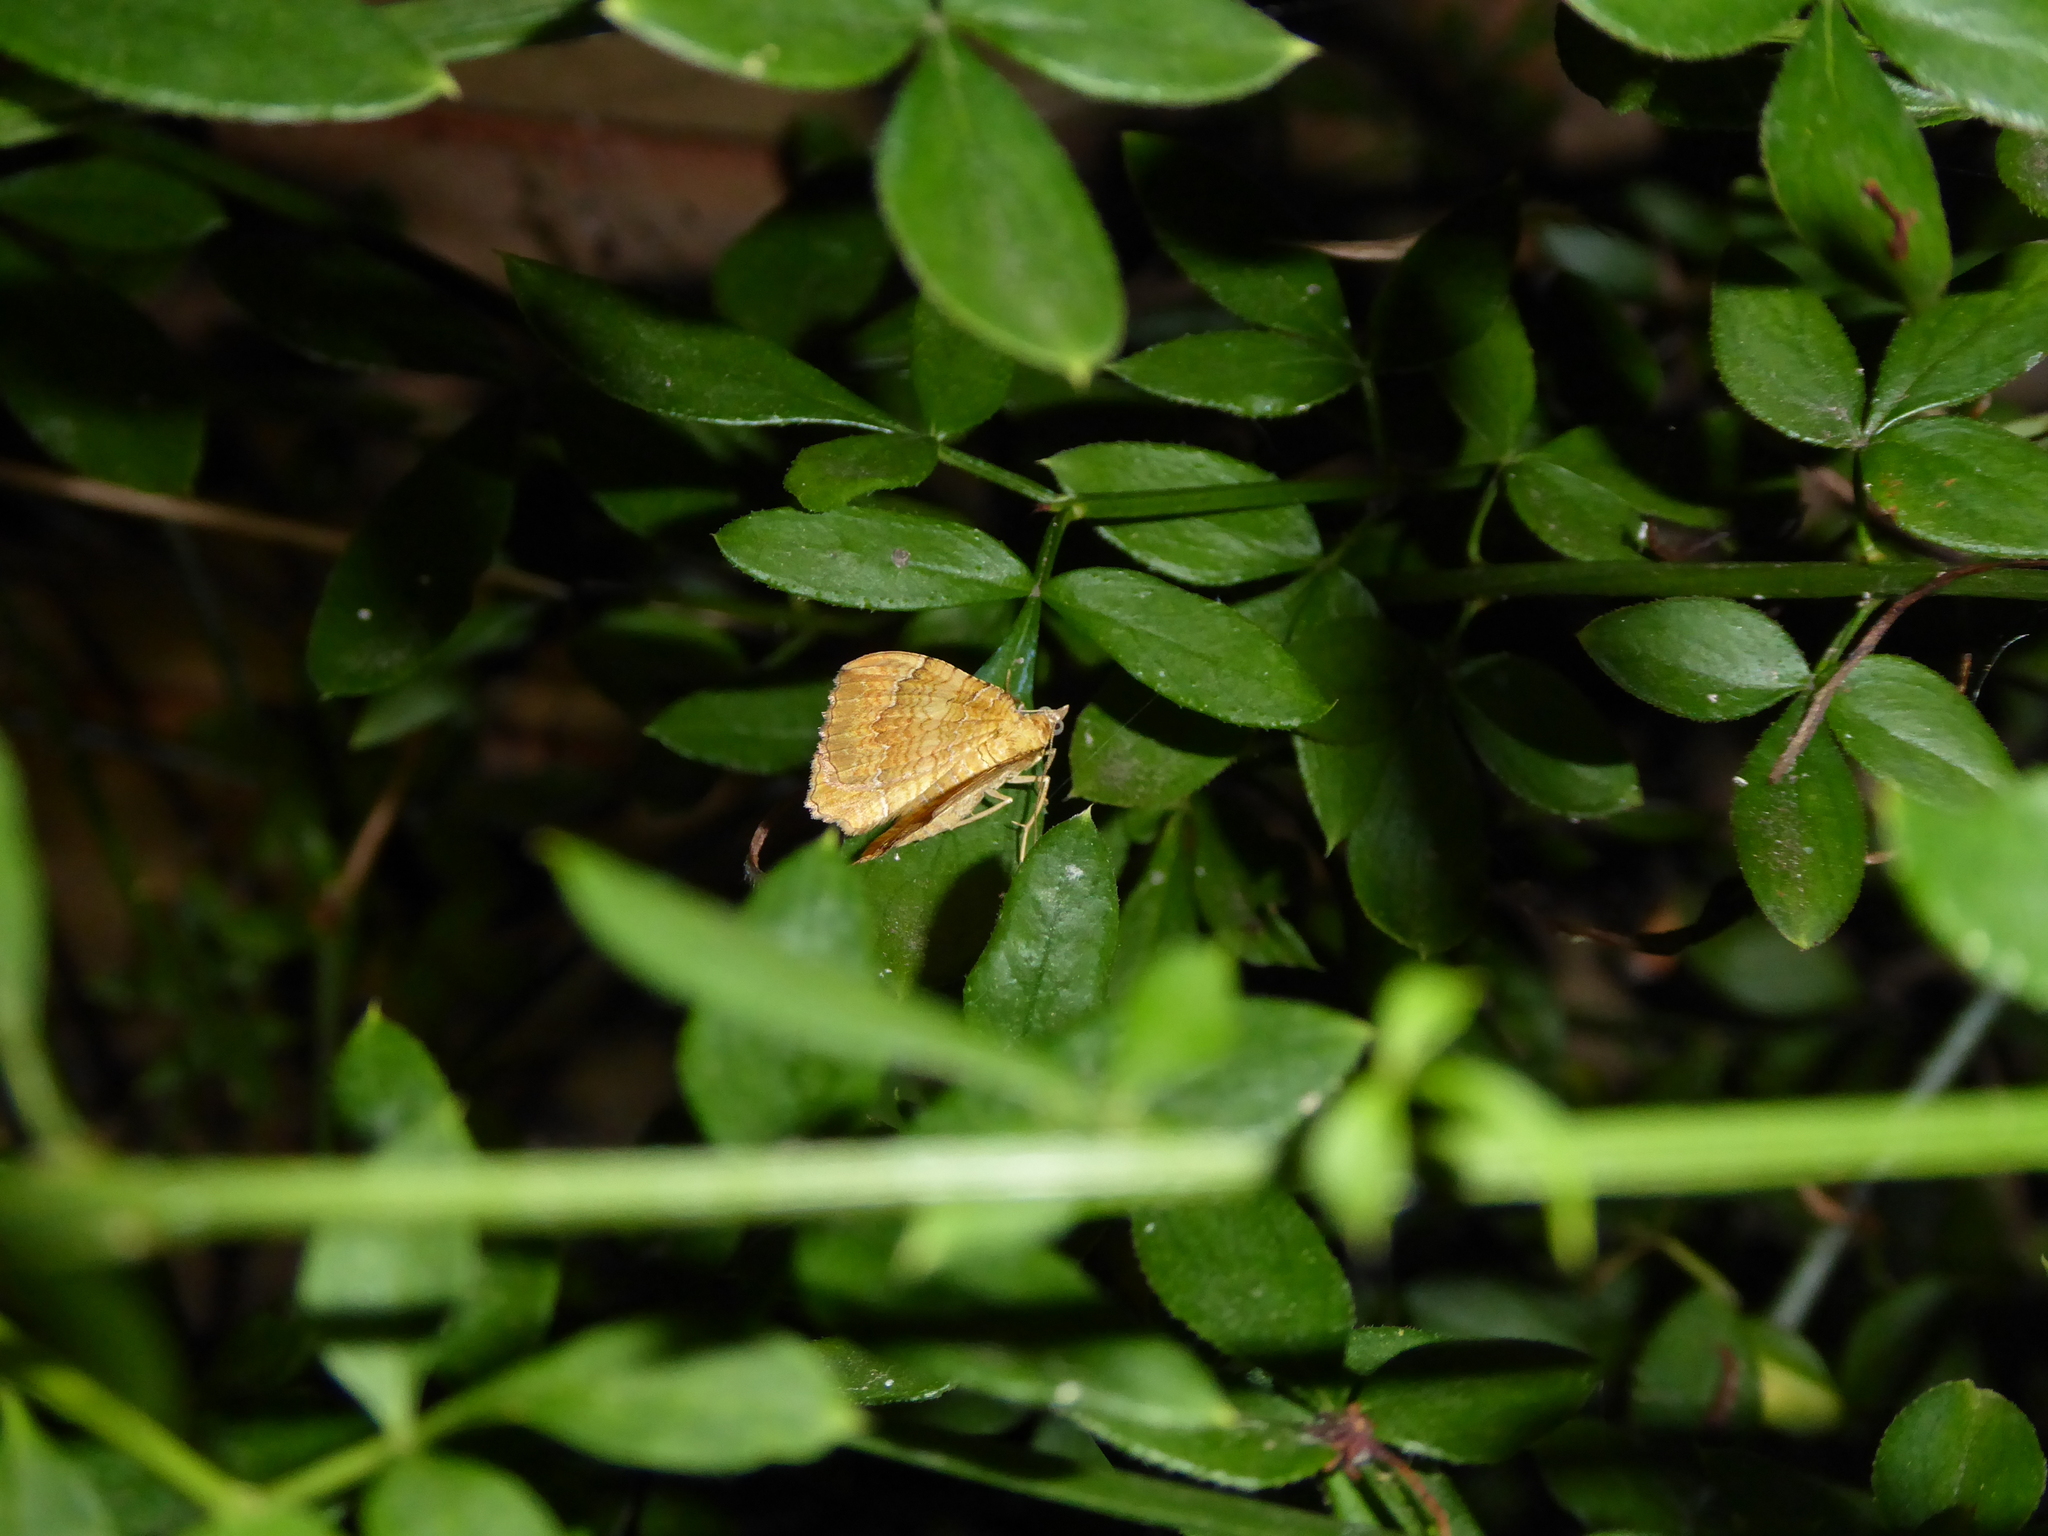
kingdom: Animalia
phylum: Arthropoda
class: Insecta
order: Lepidoptera
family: Geometridae
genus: Camptogramma
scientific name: Camptogramma bilineata
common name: Yellow shell
